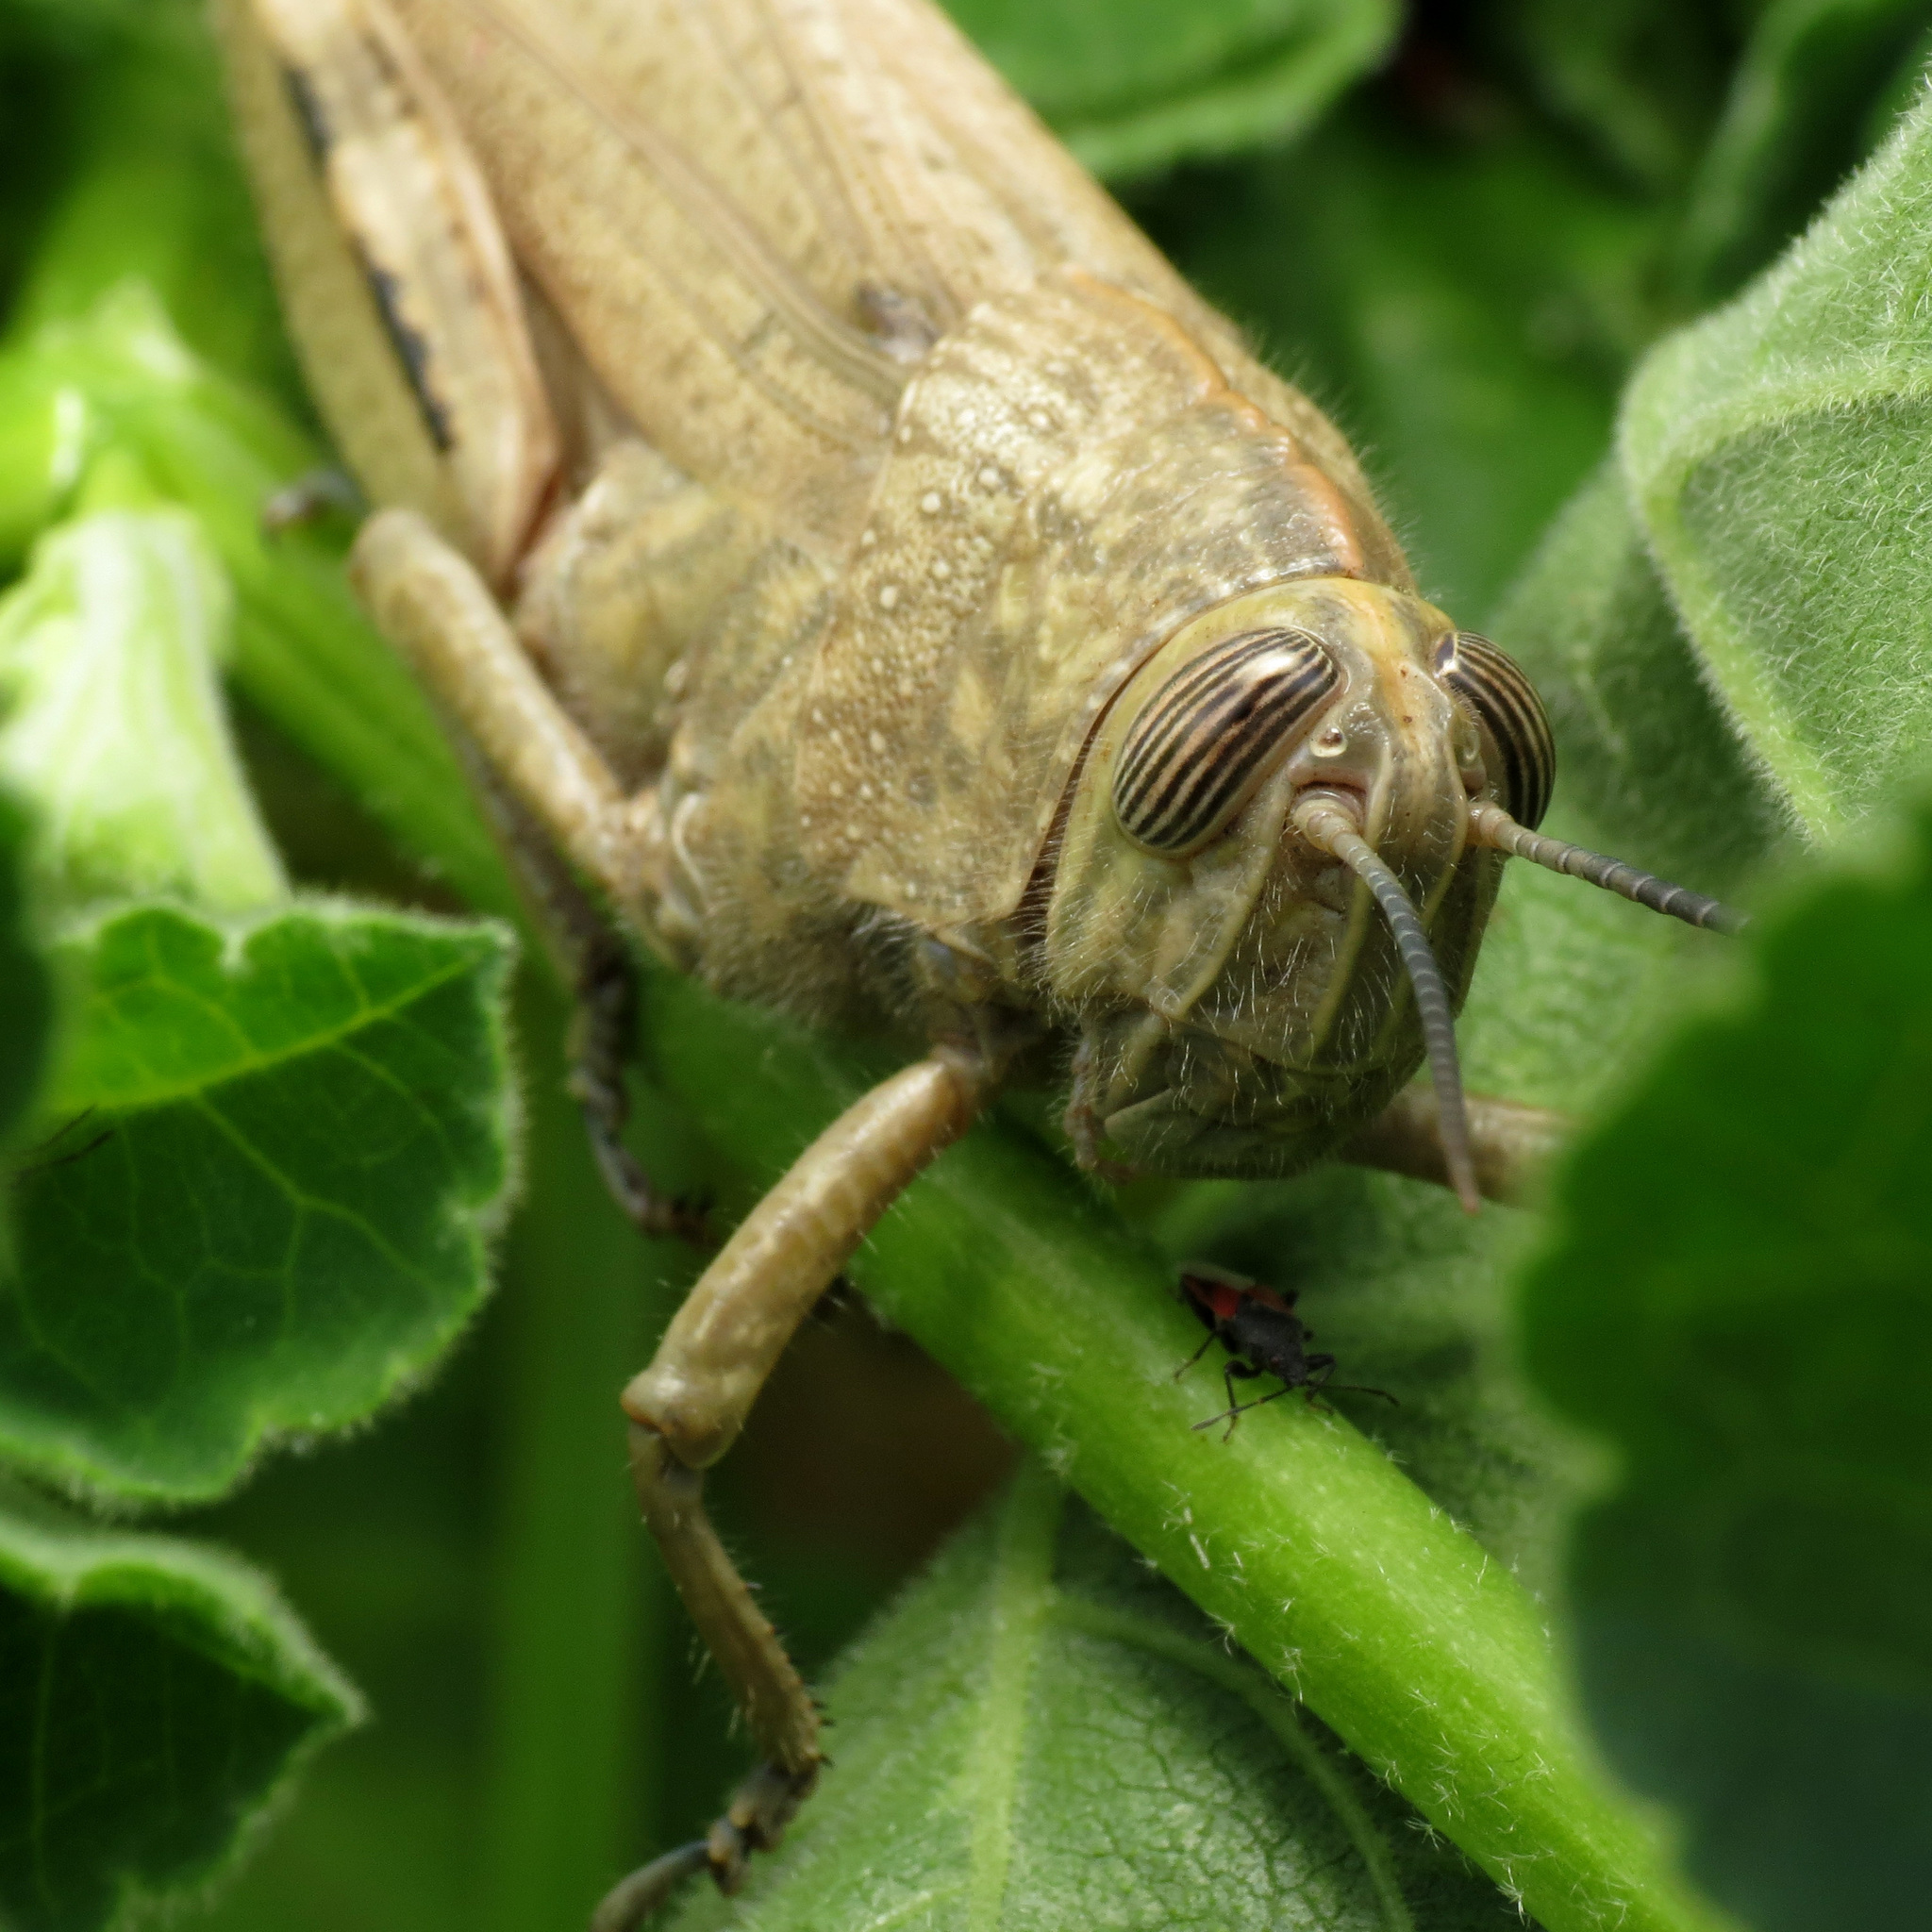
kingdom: Animalia
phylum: Arthropoda
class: Insecta
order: Orthoptera
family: Acrididae
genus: Anacridium
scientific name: Anacridium aegyptium
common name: Egyptian grasshopper
